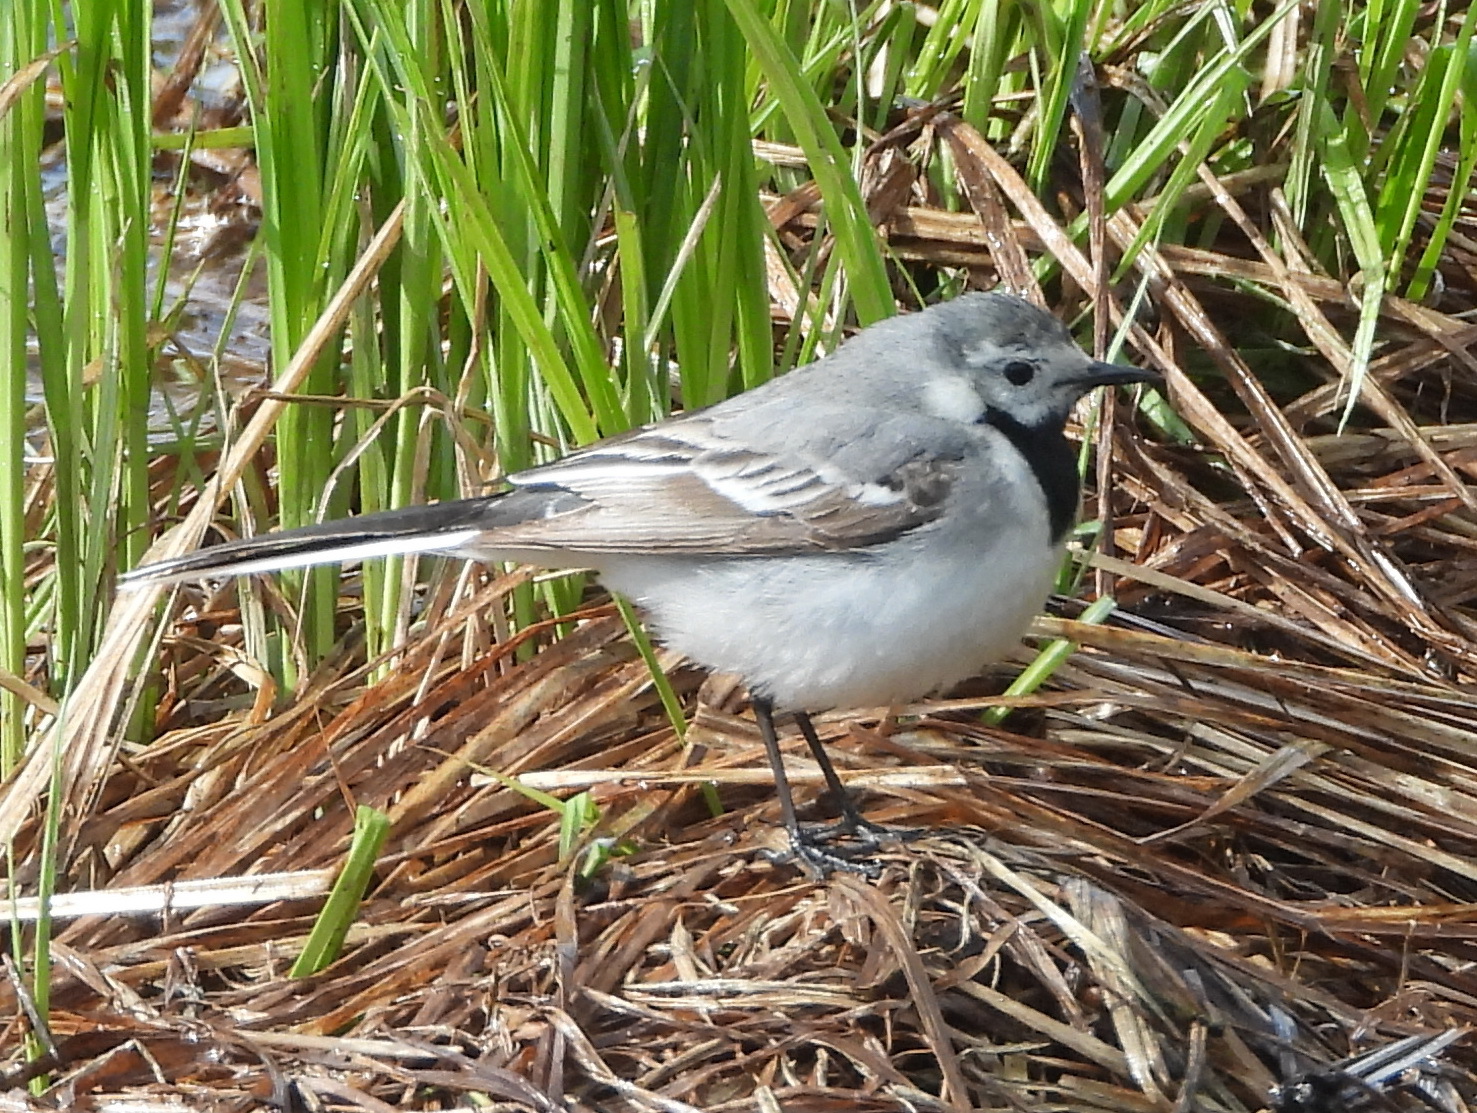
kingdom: Animalia
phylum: Chordata
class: Aves
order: Passeriformes
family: Motacillidae
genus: Motacilla
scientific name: Motacilla alba
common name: White wagtail
